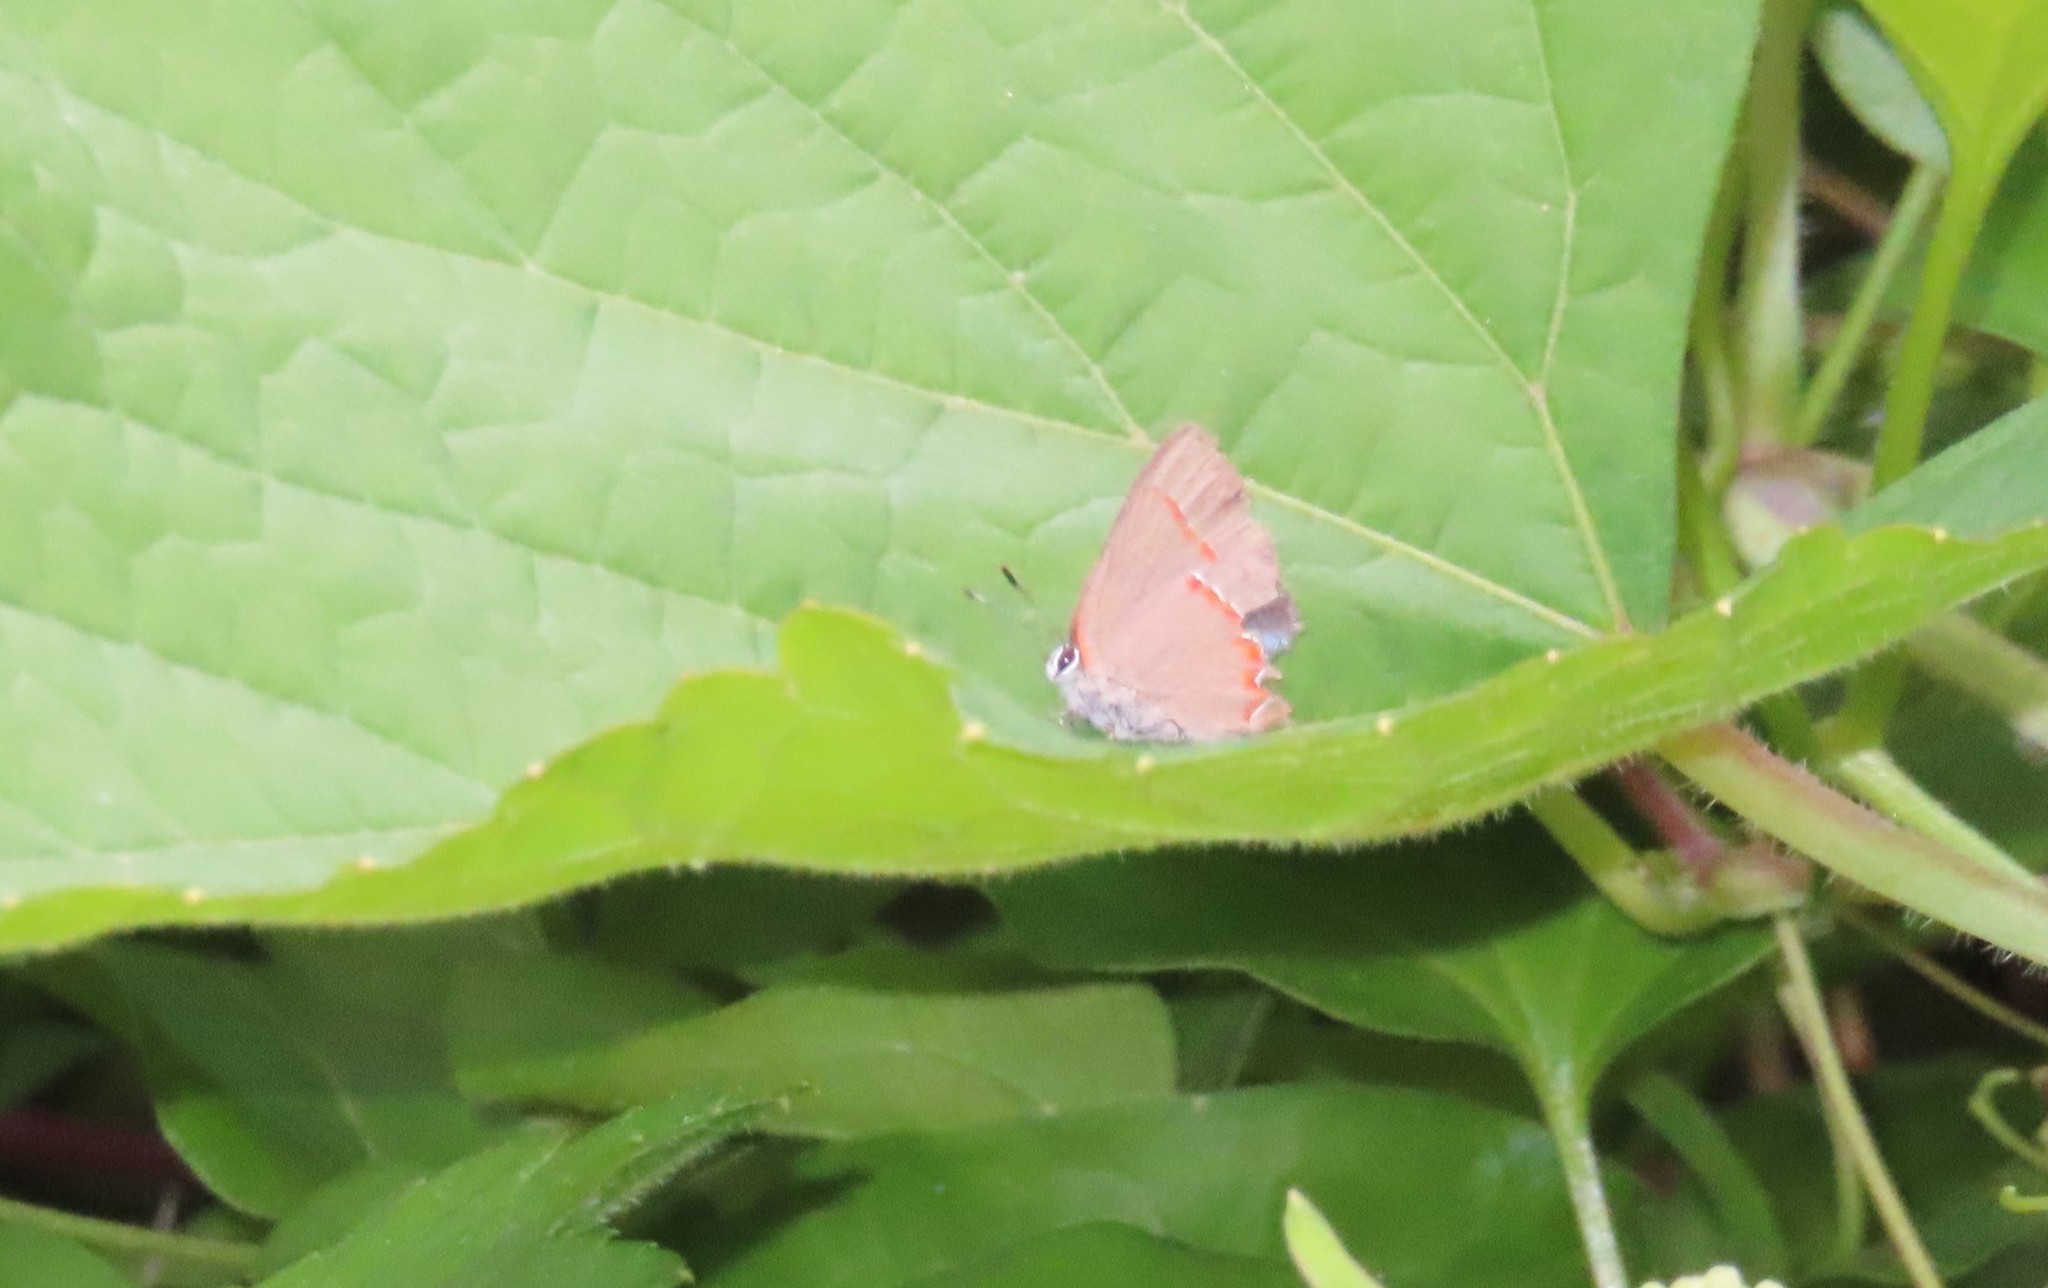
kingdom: Animalia
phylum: Arthropoda
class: Insecta
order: Lepidoptera
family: Lycaenidae
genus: Calycopis
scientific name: Calycopis cecrops
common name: Red-banded hairstreak
